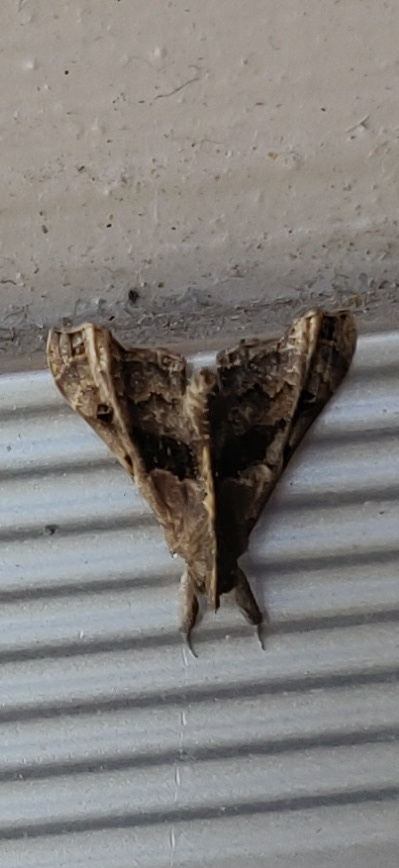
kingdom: Animalia
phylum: Arthropoda
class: Insecta
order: Lepidoptera
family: Erebidae
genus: Palthis
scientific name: Palthis asopialis
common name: Faint-spotted palthis moth
